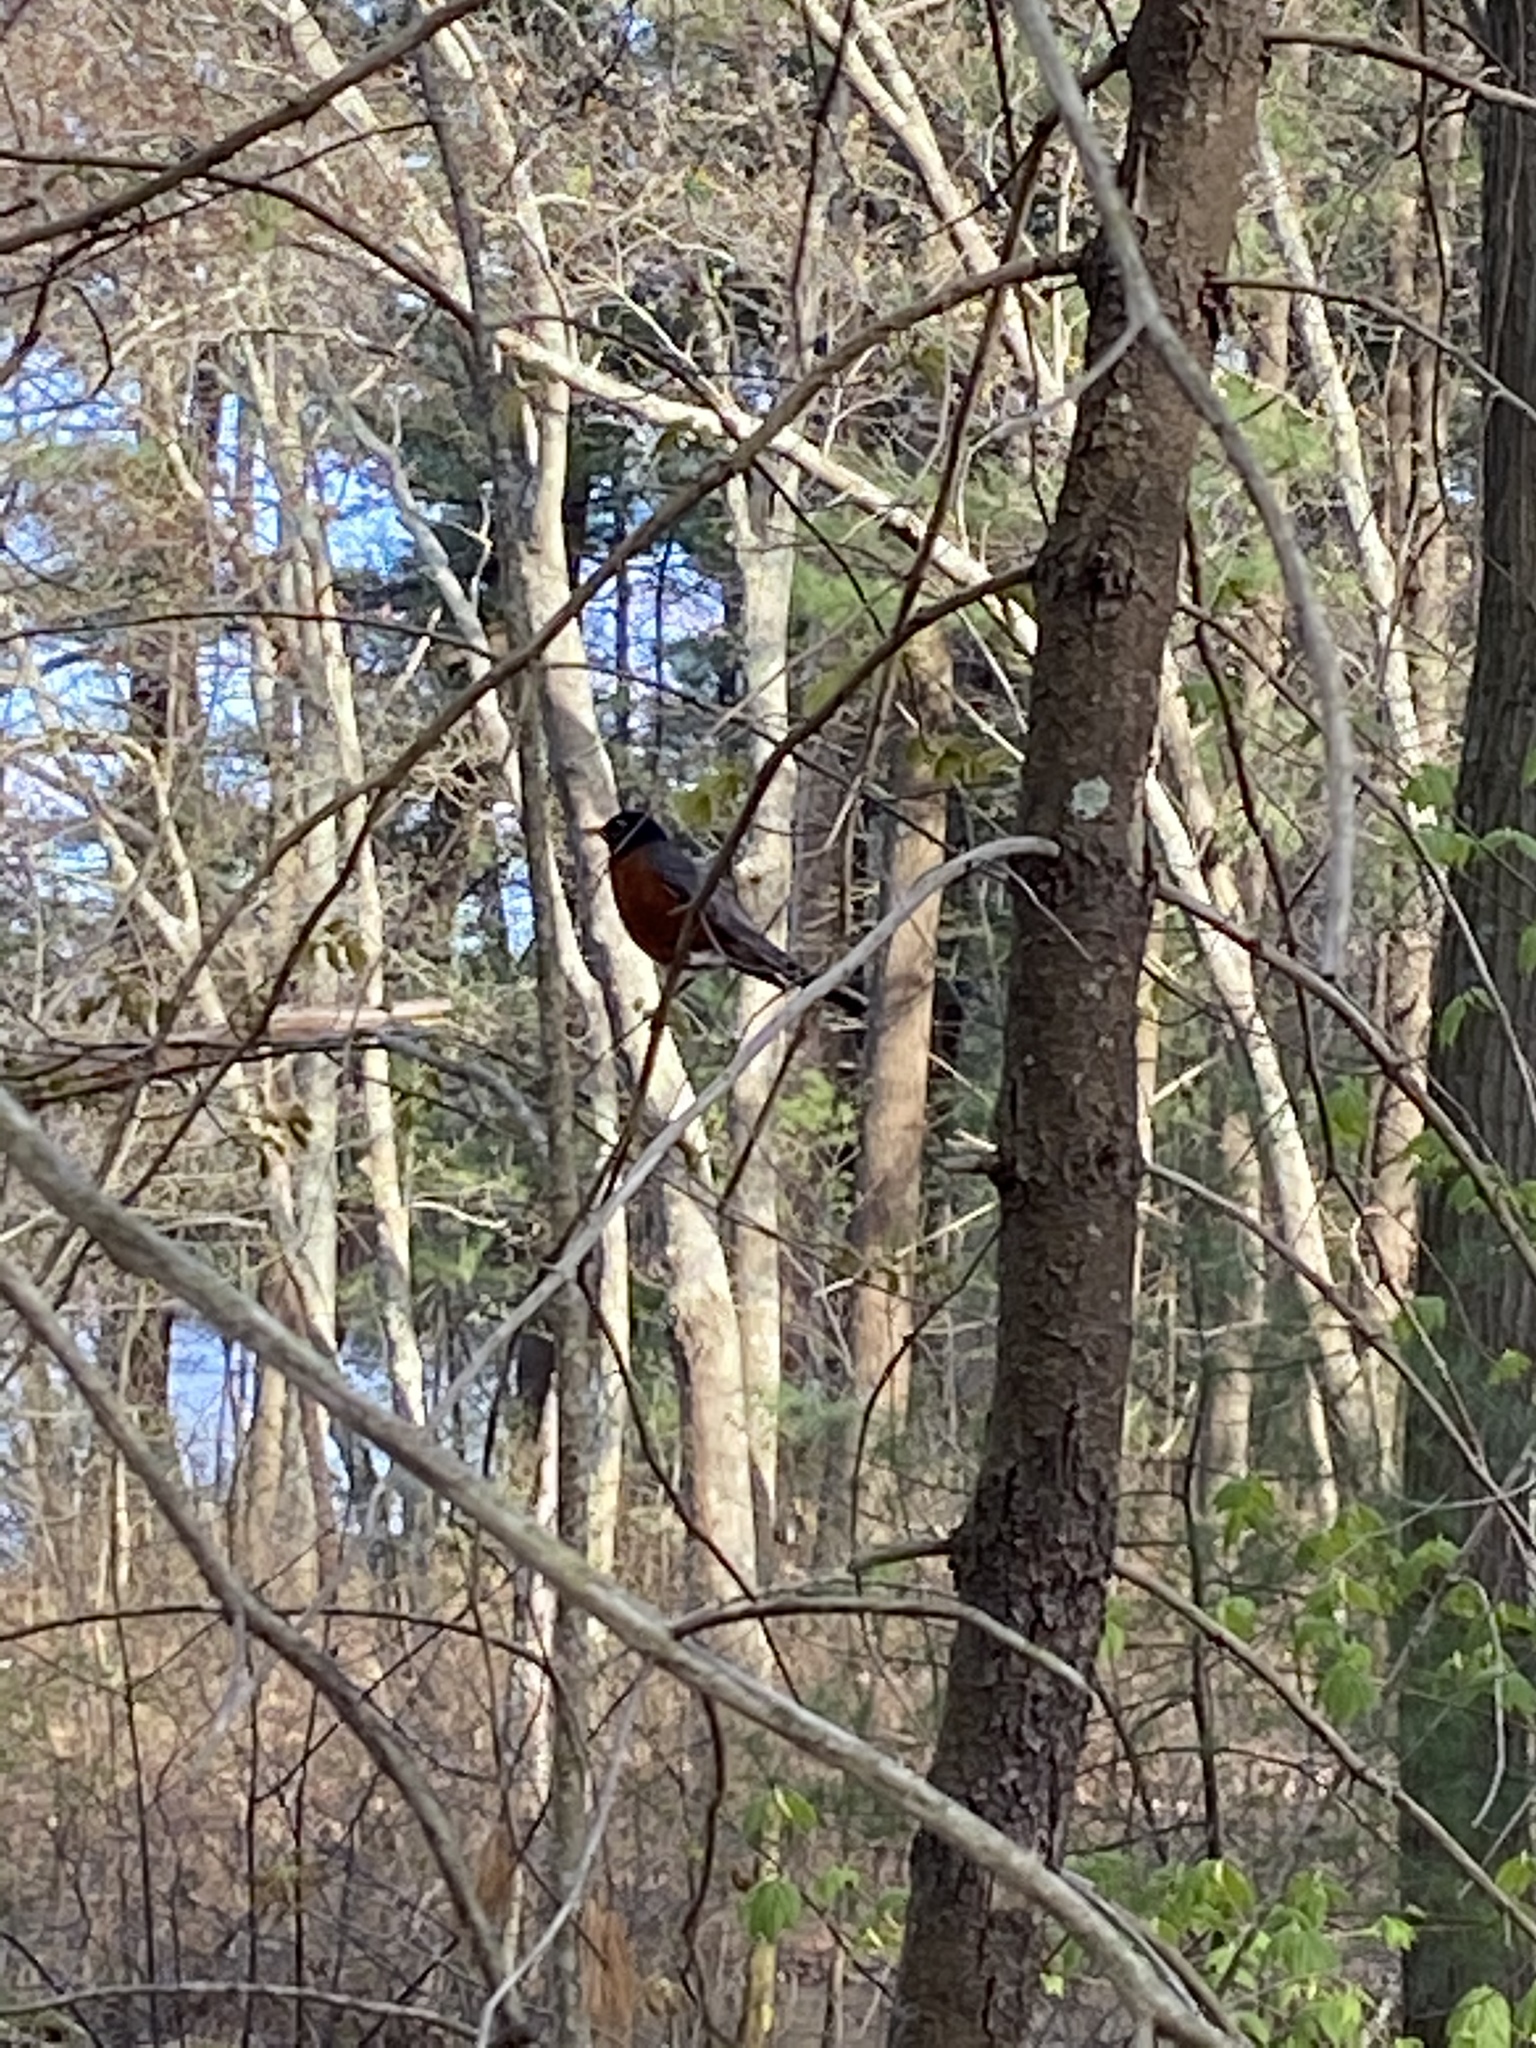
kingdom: Animalia
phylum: Chordata
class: Aves
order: Passeriformes
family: Turdidae
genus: Turdus
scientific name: Turdus migratorius
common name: American robin
